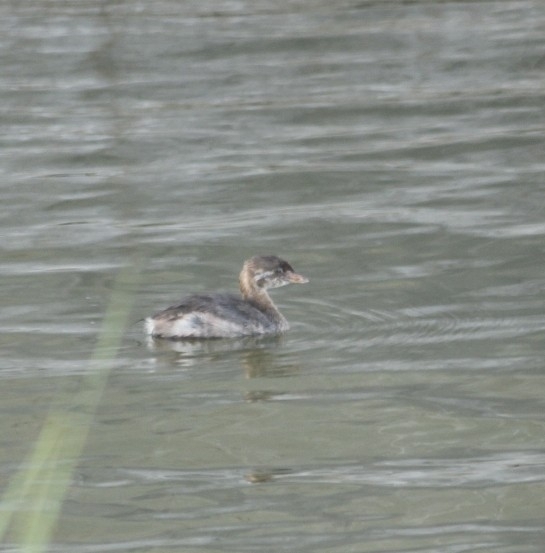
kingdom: Animalia
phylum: Chordata
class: Aves
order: Podicipediformes
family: Podicipedidae
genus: Podilymbus
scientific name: Podilymbus podiceps
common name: Pied-billed grebe
